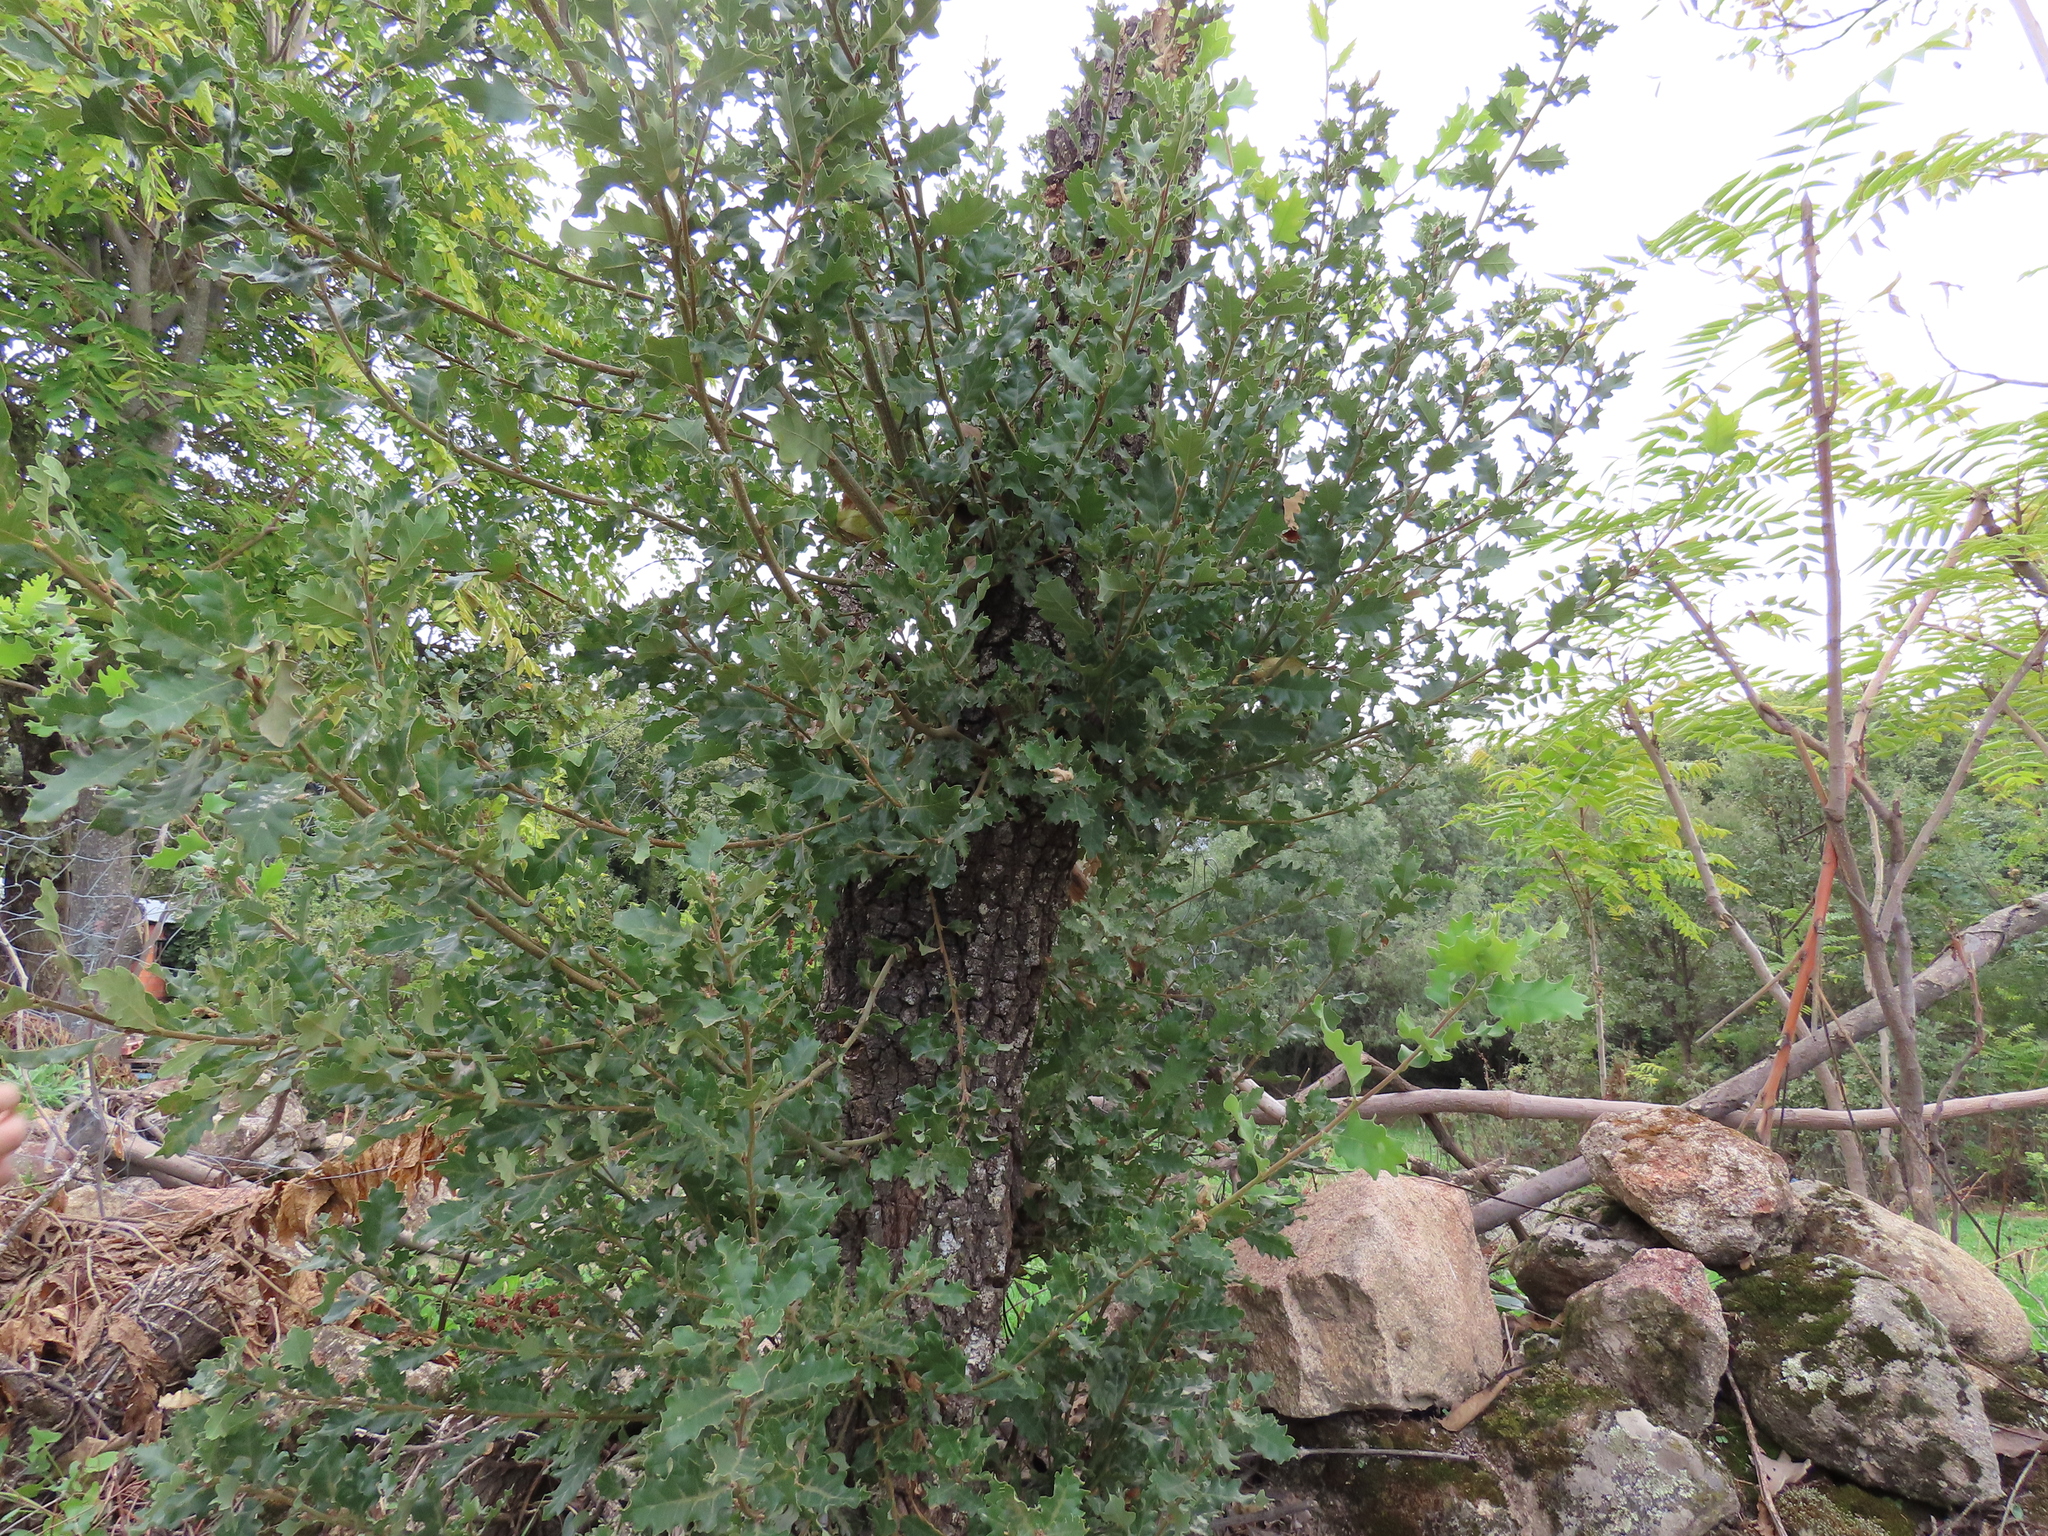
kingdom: Plantae
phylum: Tracheophyta
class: Magnoliopsida
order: Fagales
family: Fagaceae
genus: Quercus
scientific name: Quercus faginea
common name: Gall oak tree
